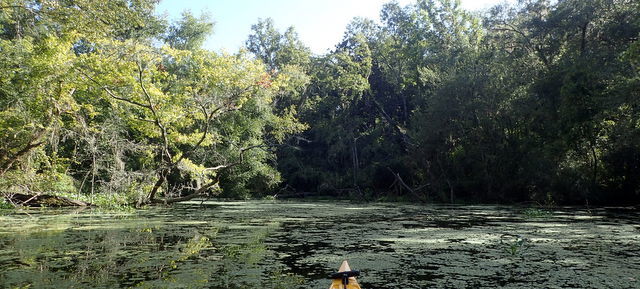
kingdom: Plantae
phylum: Tracheophyta
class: Polypodiopsida
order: Salviniales
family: Salviniaceae
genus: Salvinia
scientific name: Salvinia minima
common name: Water spangles
